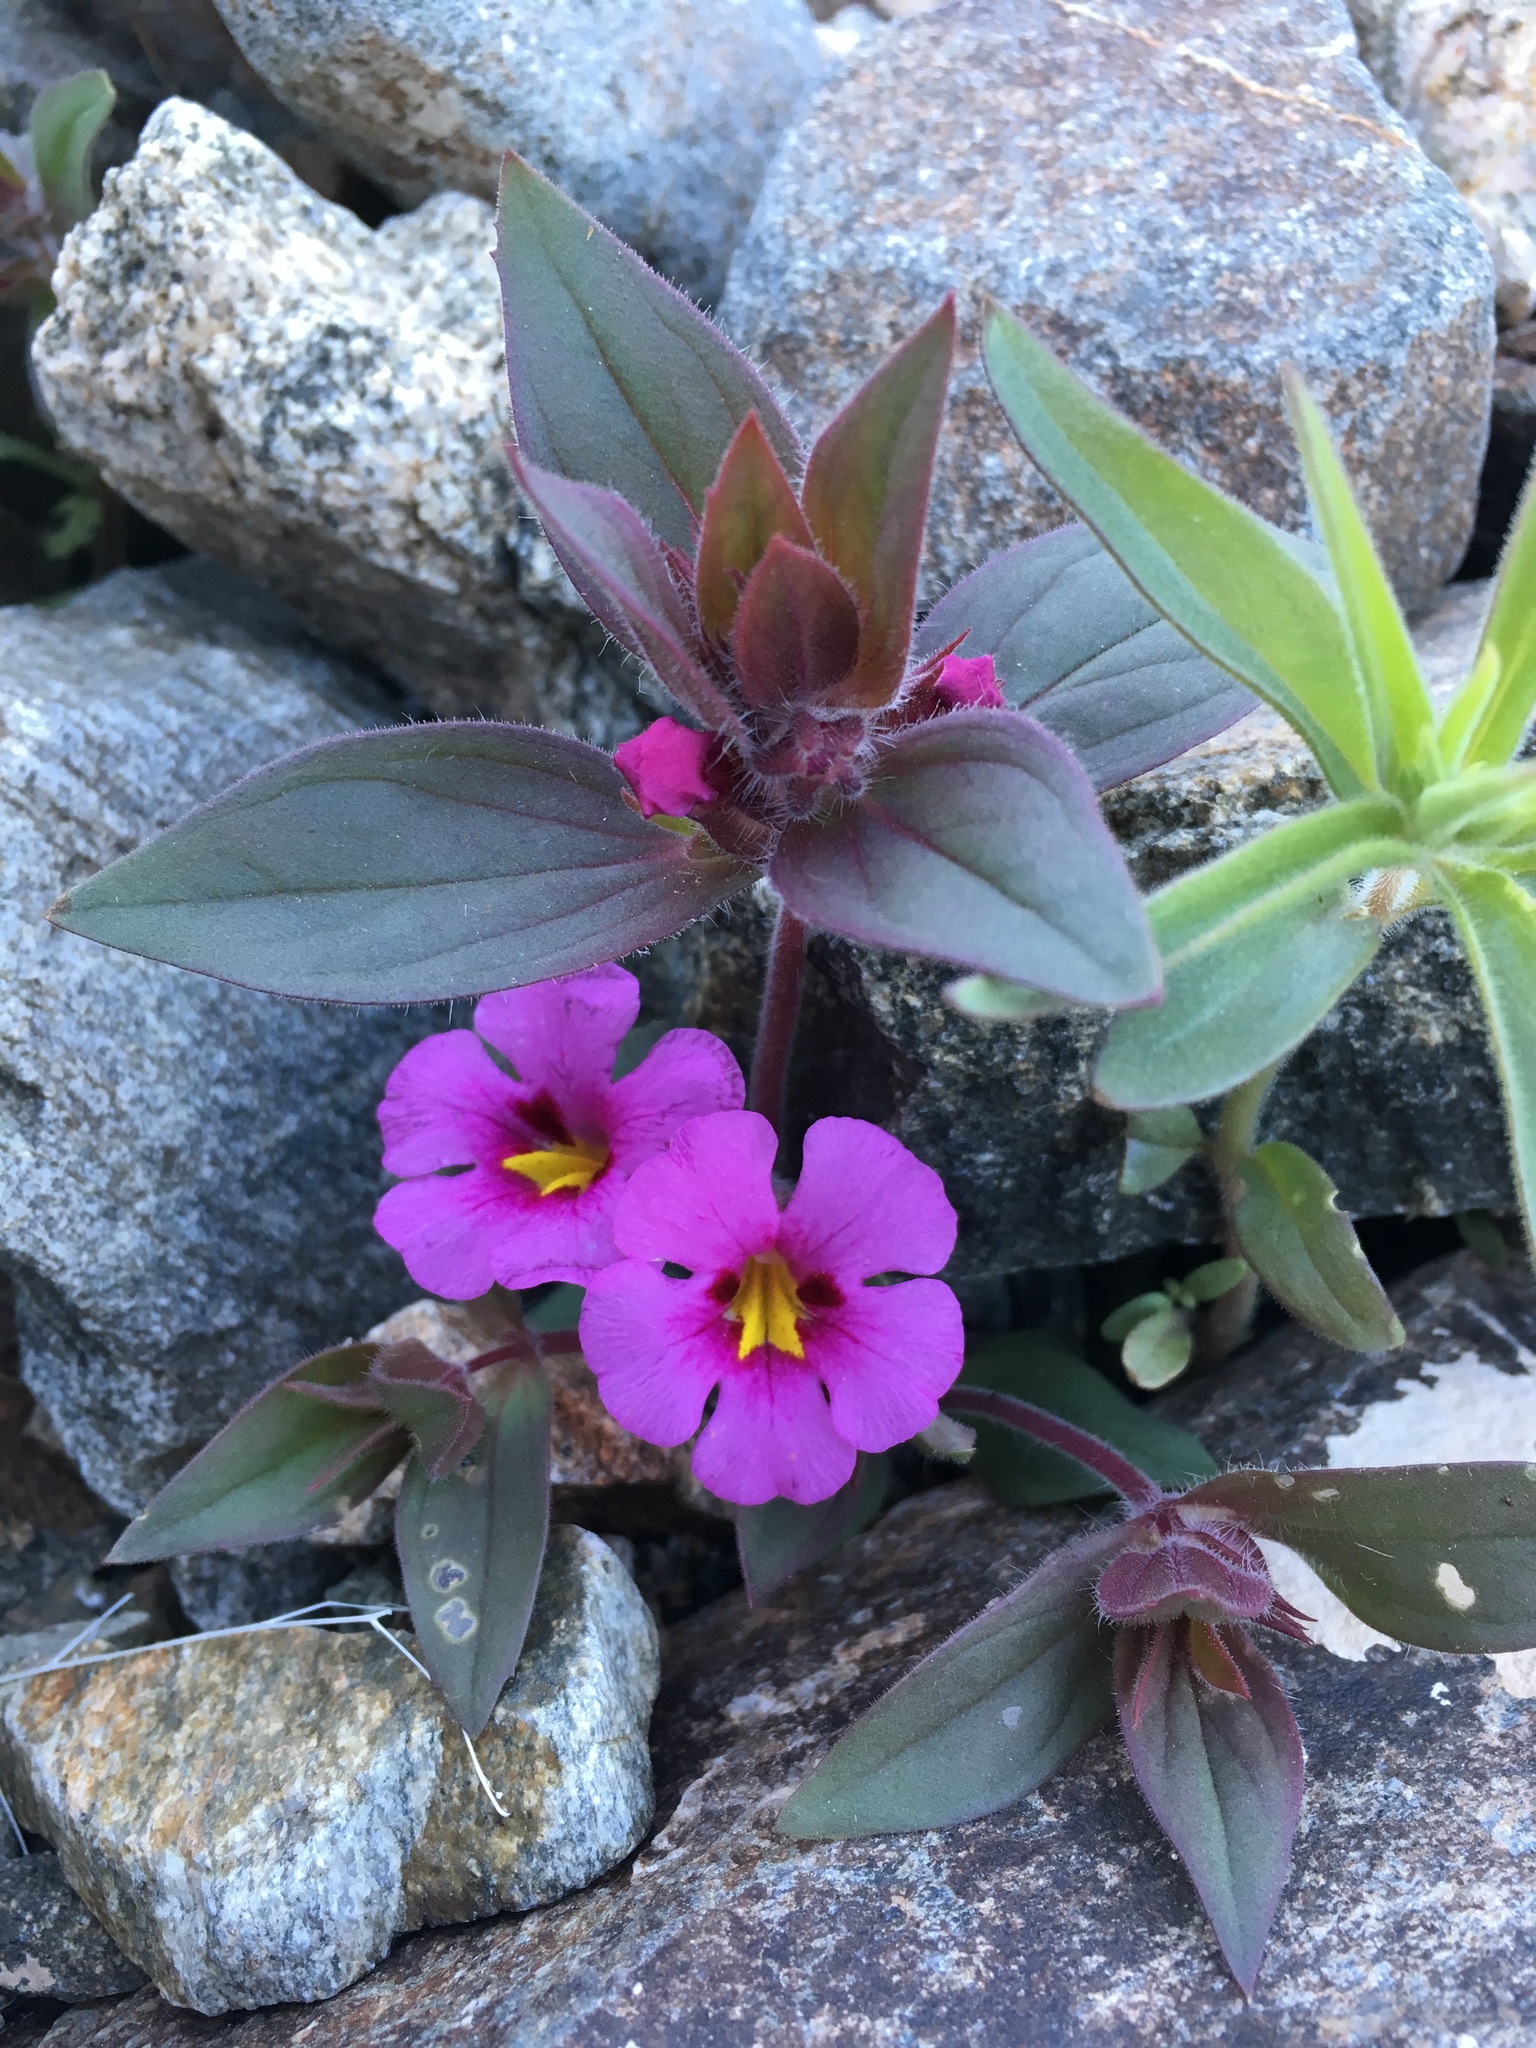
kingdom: Plantae
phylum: Tracheophyta
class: Magnoliopsida
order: Lamiales
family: Phrymaceae
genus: Diplacus
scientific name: Diplacus bigelovii
